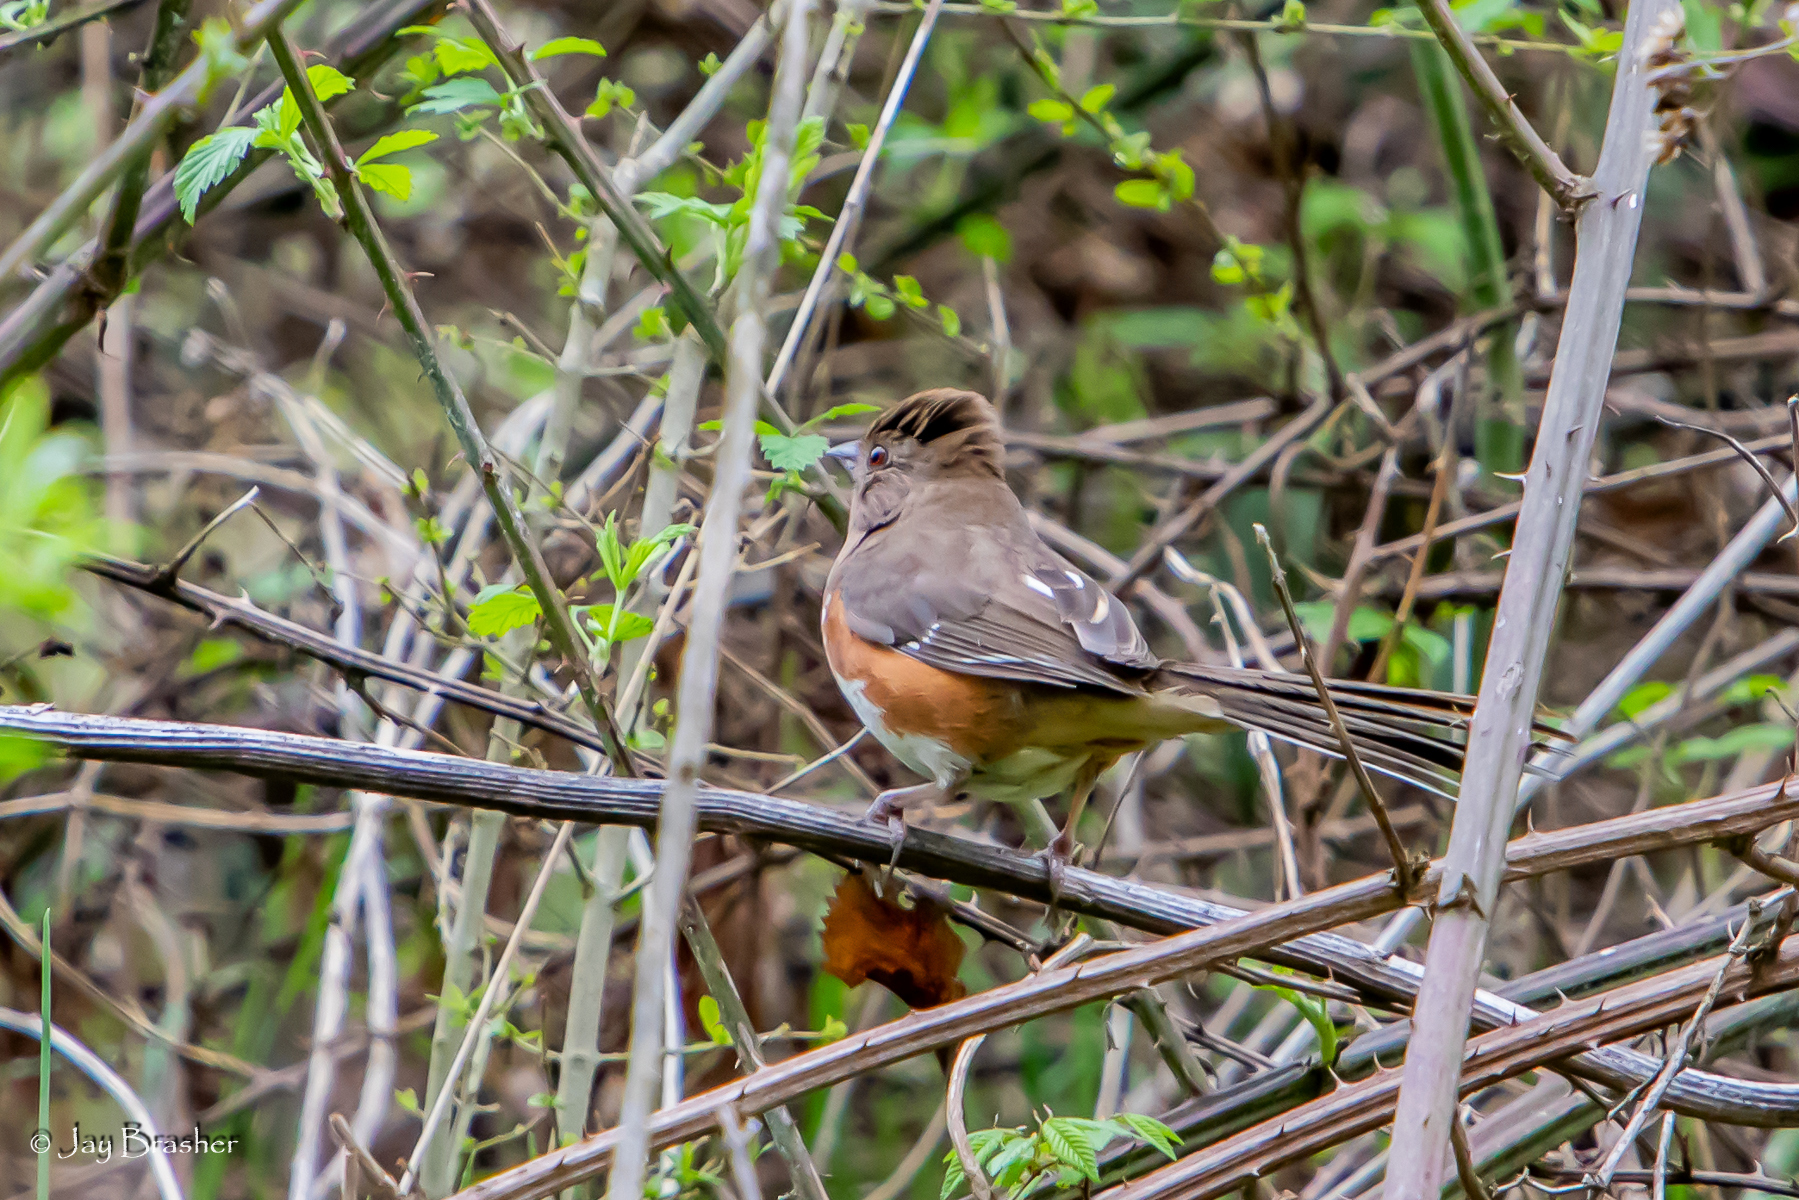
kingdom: Animalia
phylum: Chordata
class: Aves
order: Passeriformes
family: Passerellidae
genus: Pipilo
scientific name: Pipilo erythrophthalmus
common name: Eastern towhee
